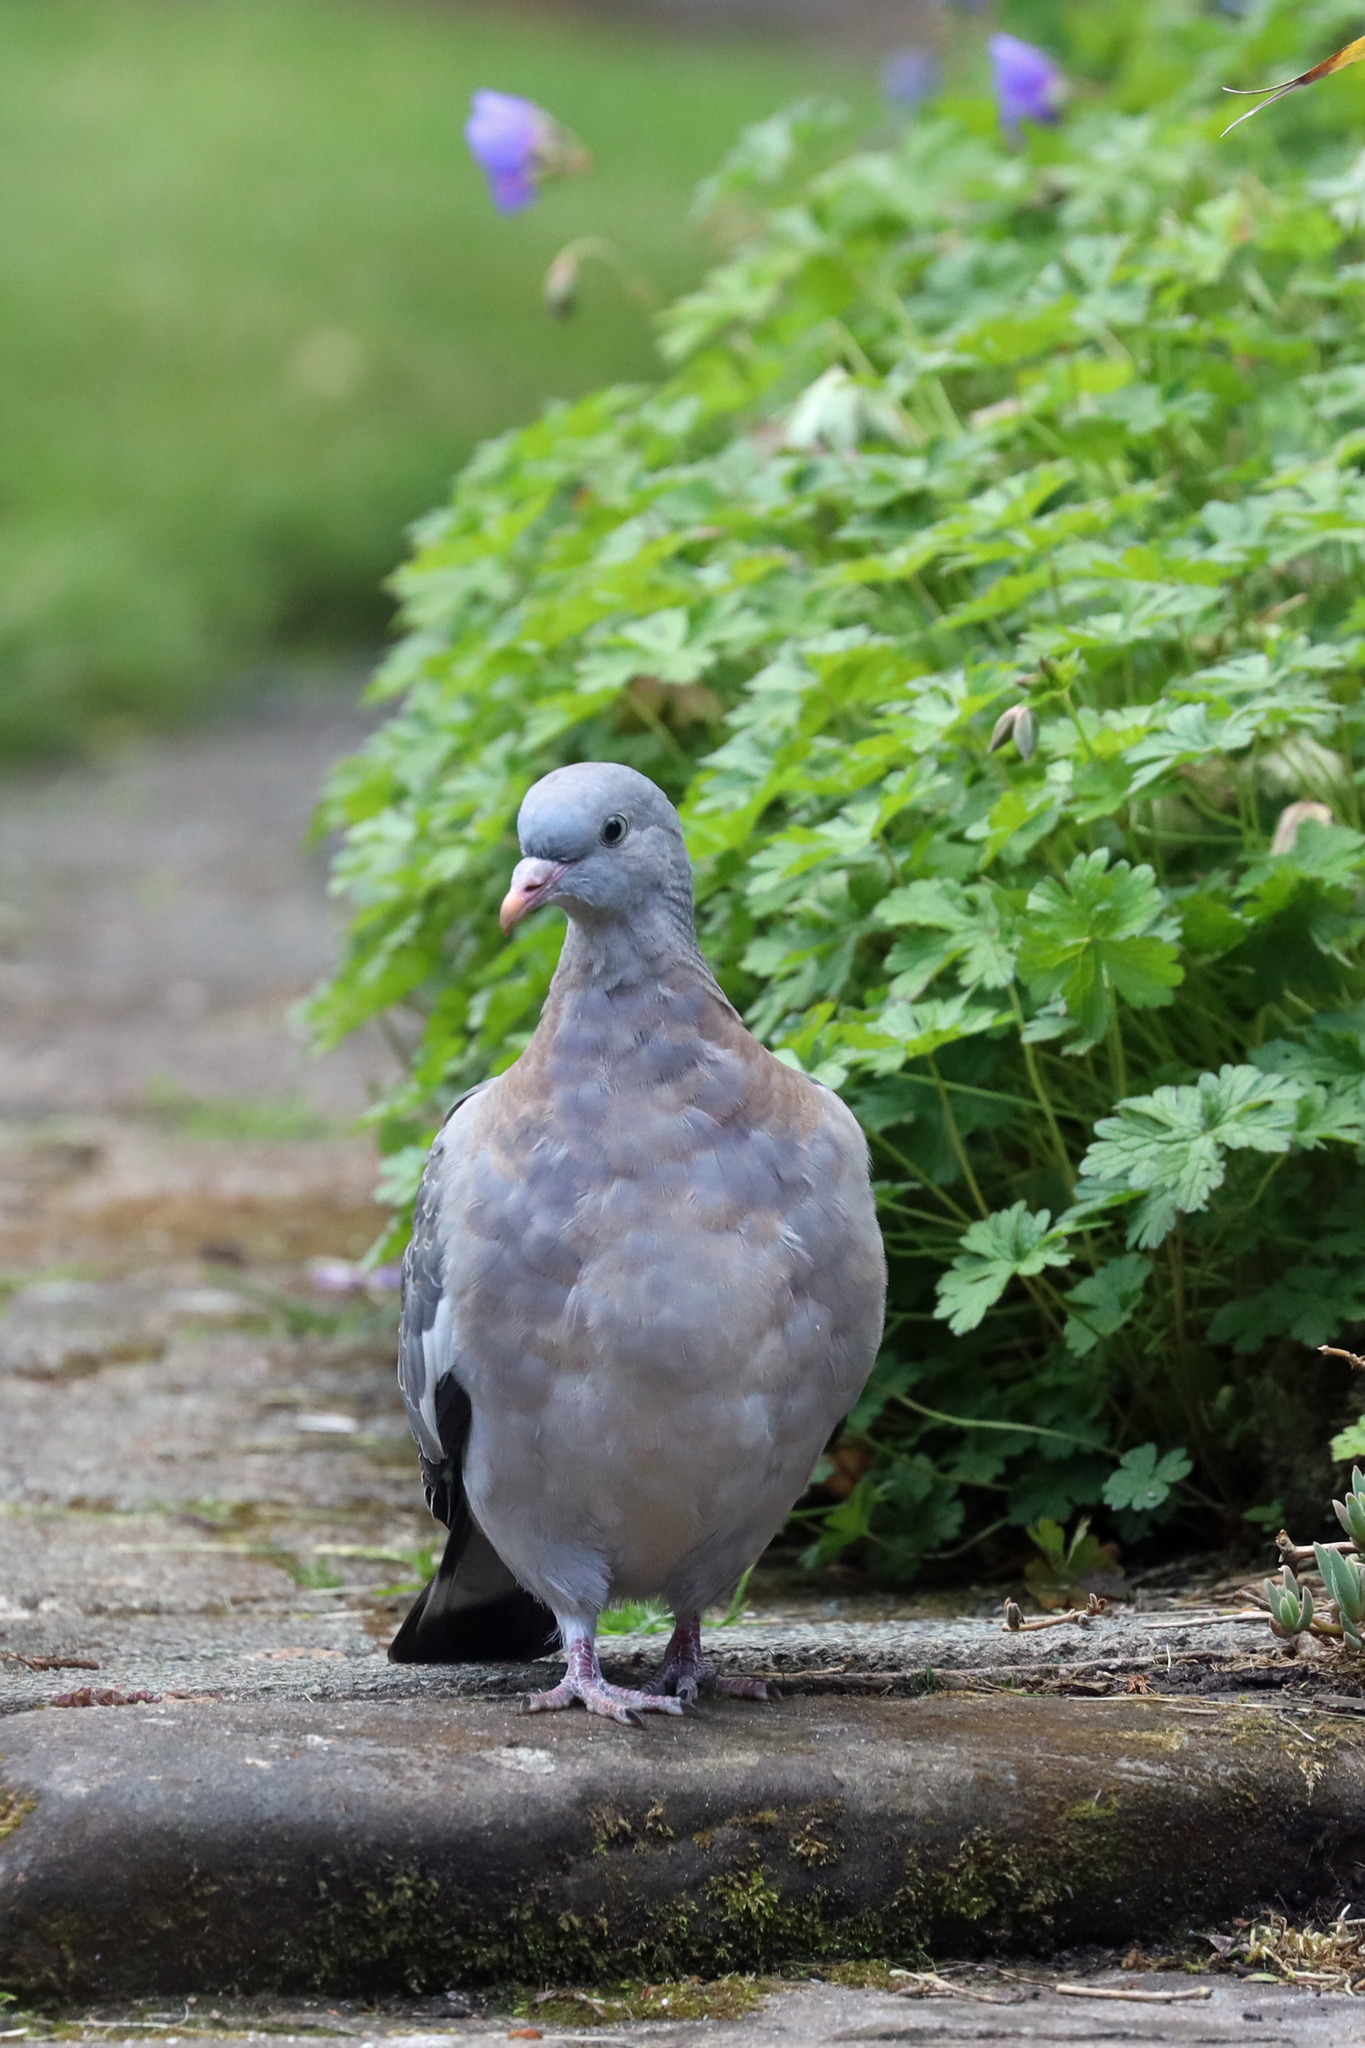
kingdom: Animalia
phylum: Chordata
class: Aves
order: Columbiformes
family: Columbidae
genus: Columba
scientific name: Columba palumbus
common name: Common wood pigeon
